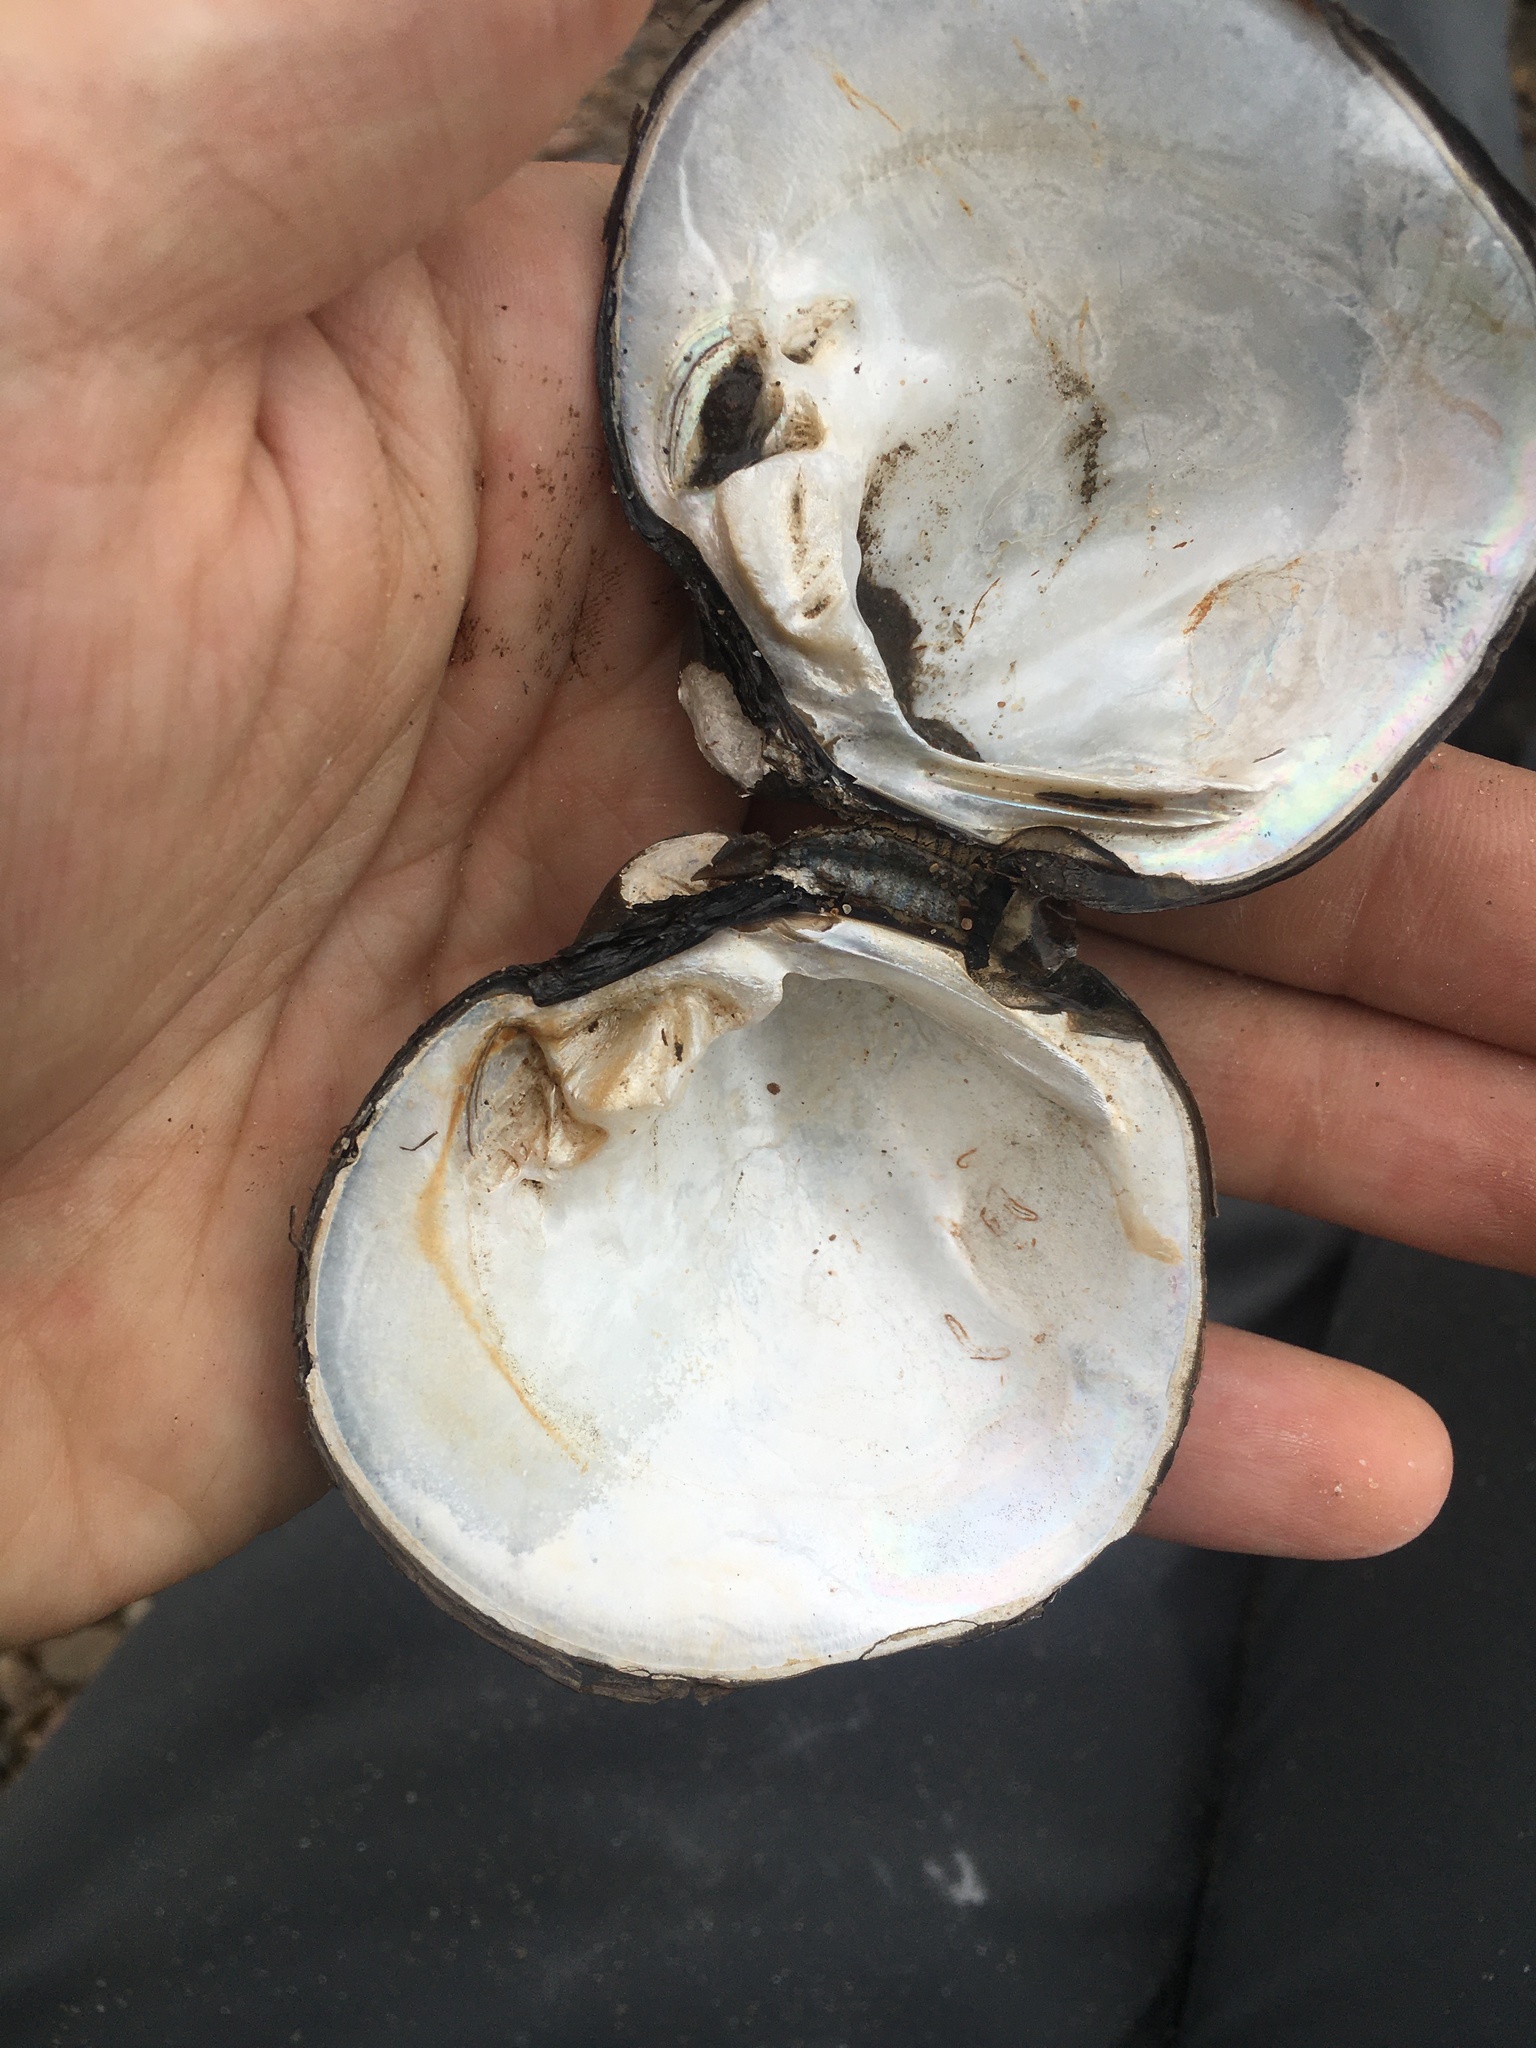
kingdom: Animalia
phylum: Mollusca
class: Bivalvia
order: Unionida
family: Unionidae
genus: Cyclonaias
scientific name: Cyclonaias pustulosa
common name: Pimpleback
